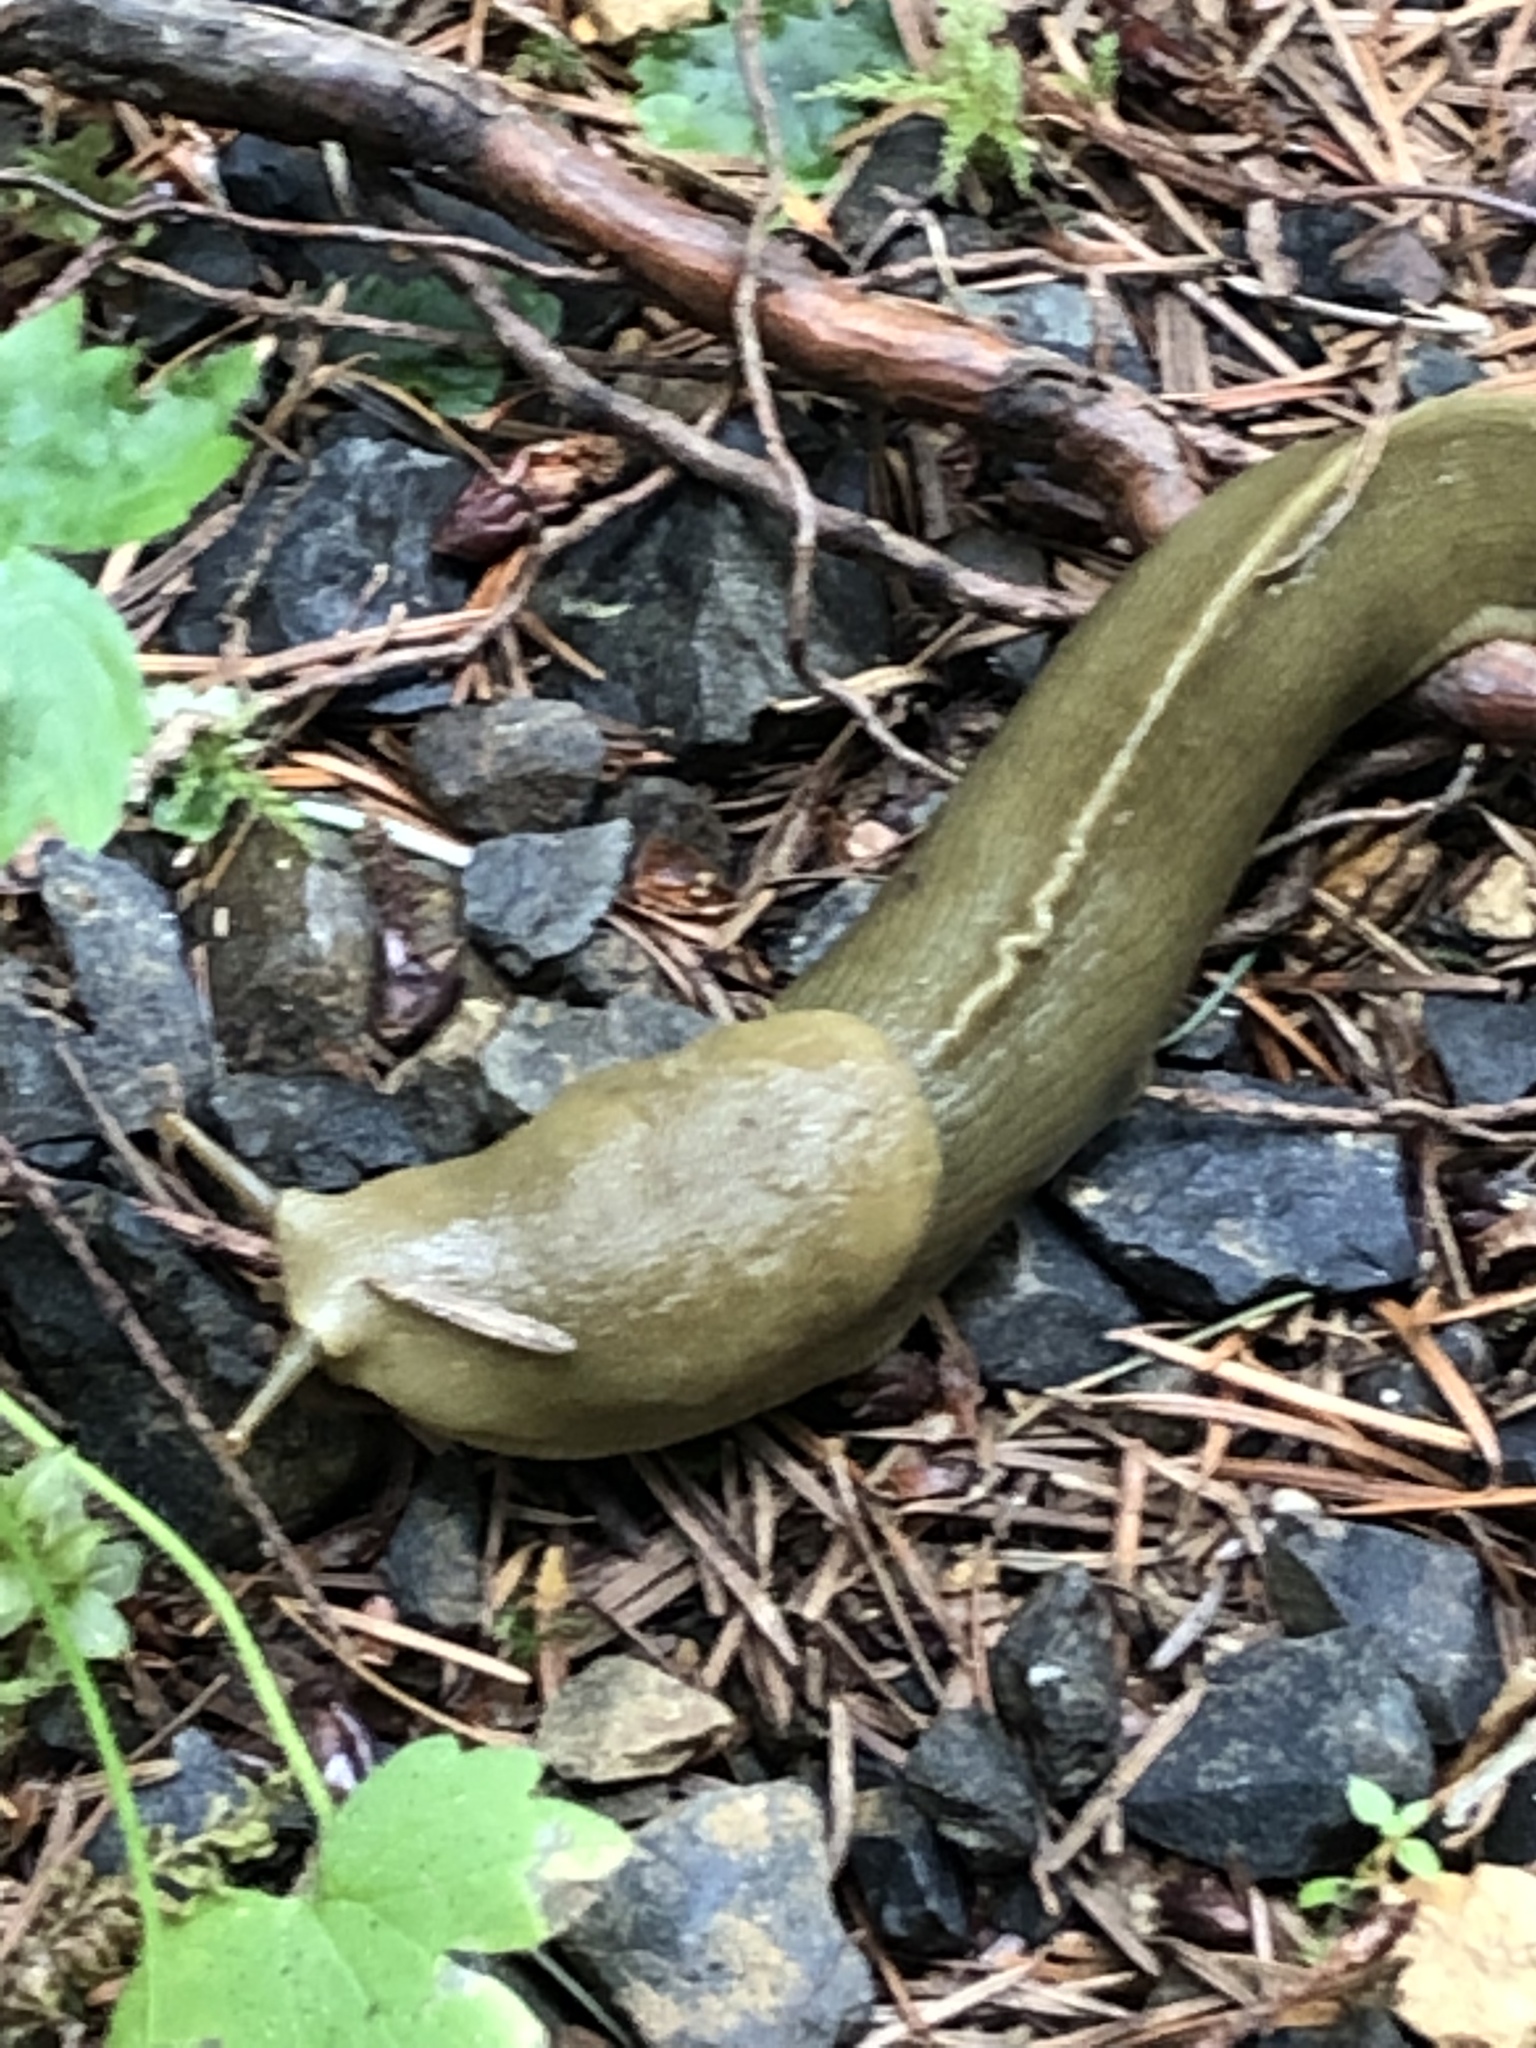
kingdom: Animalia
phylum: Mollusca
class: Gastropoda
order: Stylommatophora
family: Ariolimacidae
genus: Ariolimax
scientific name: Ariolimax columbianus
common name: Pacific banana slug
